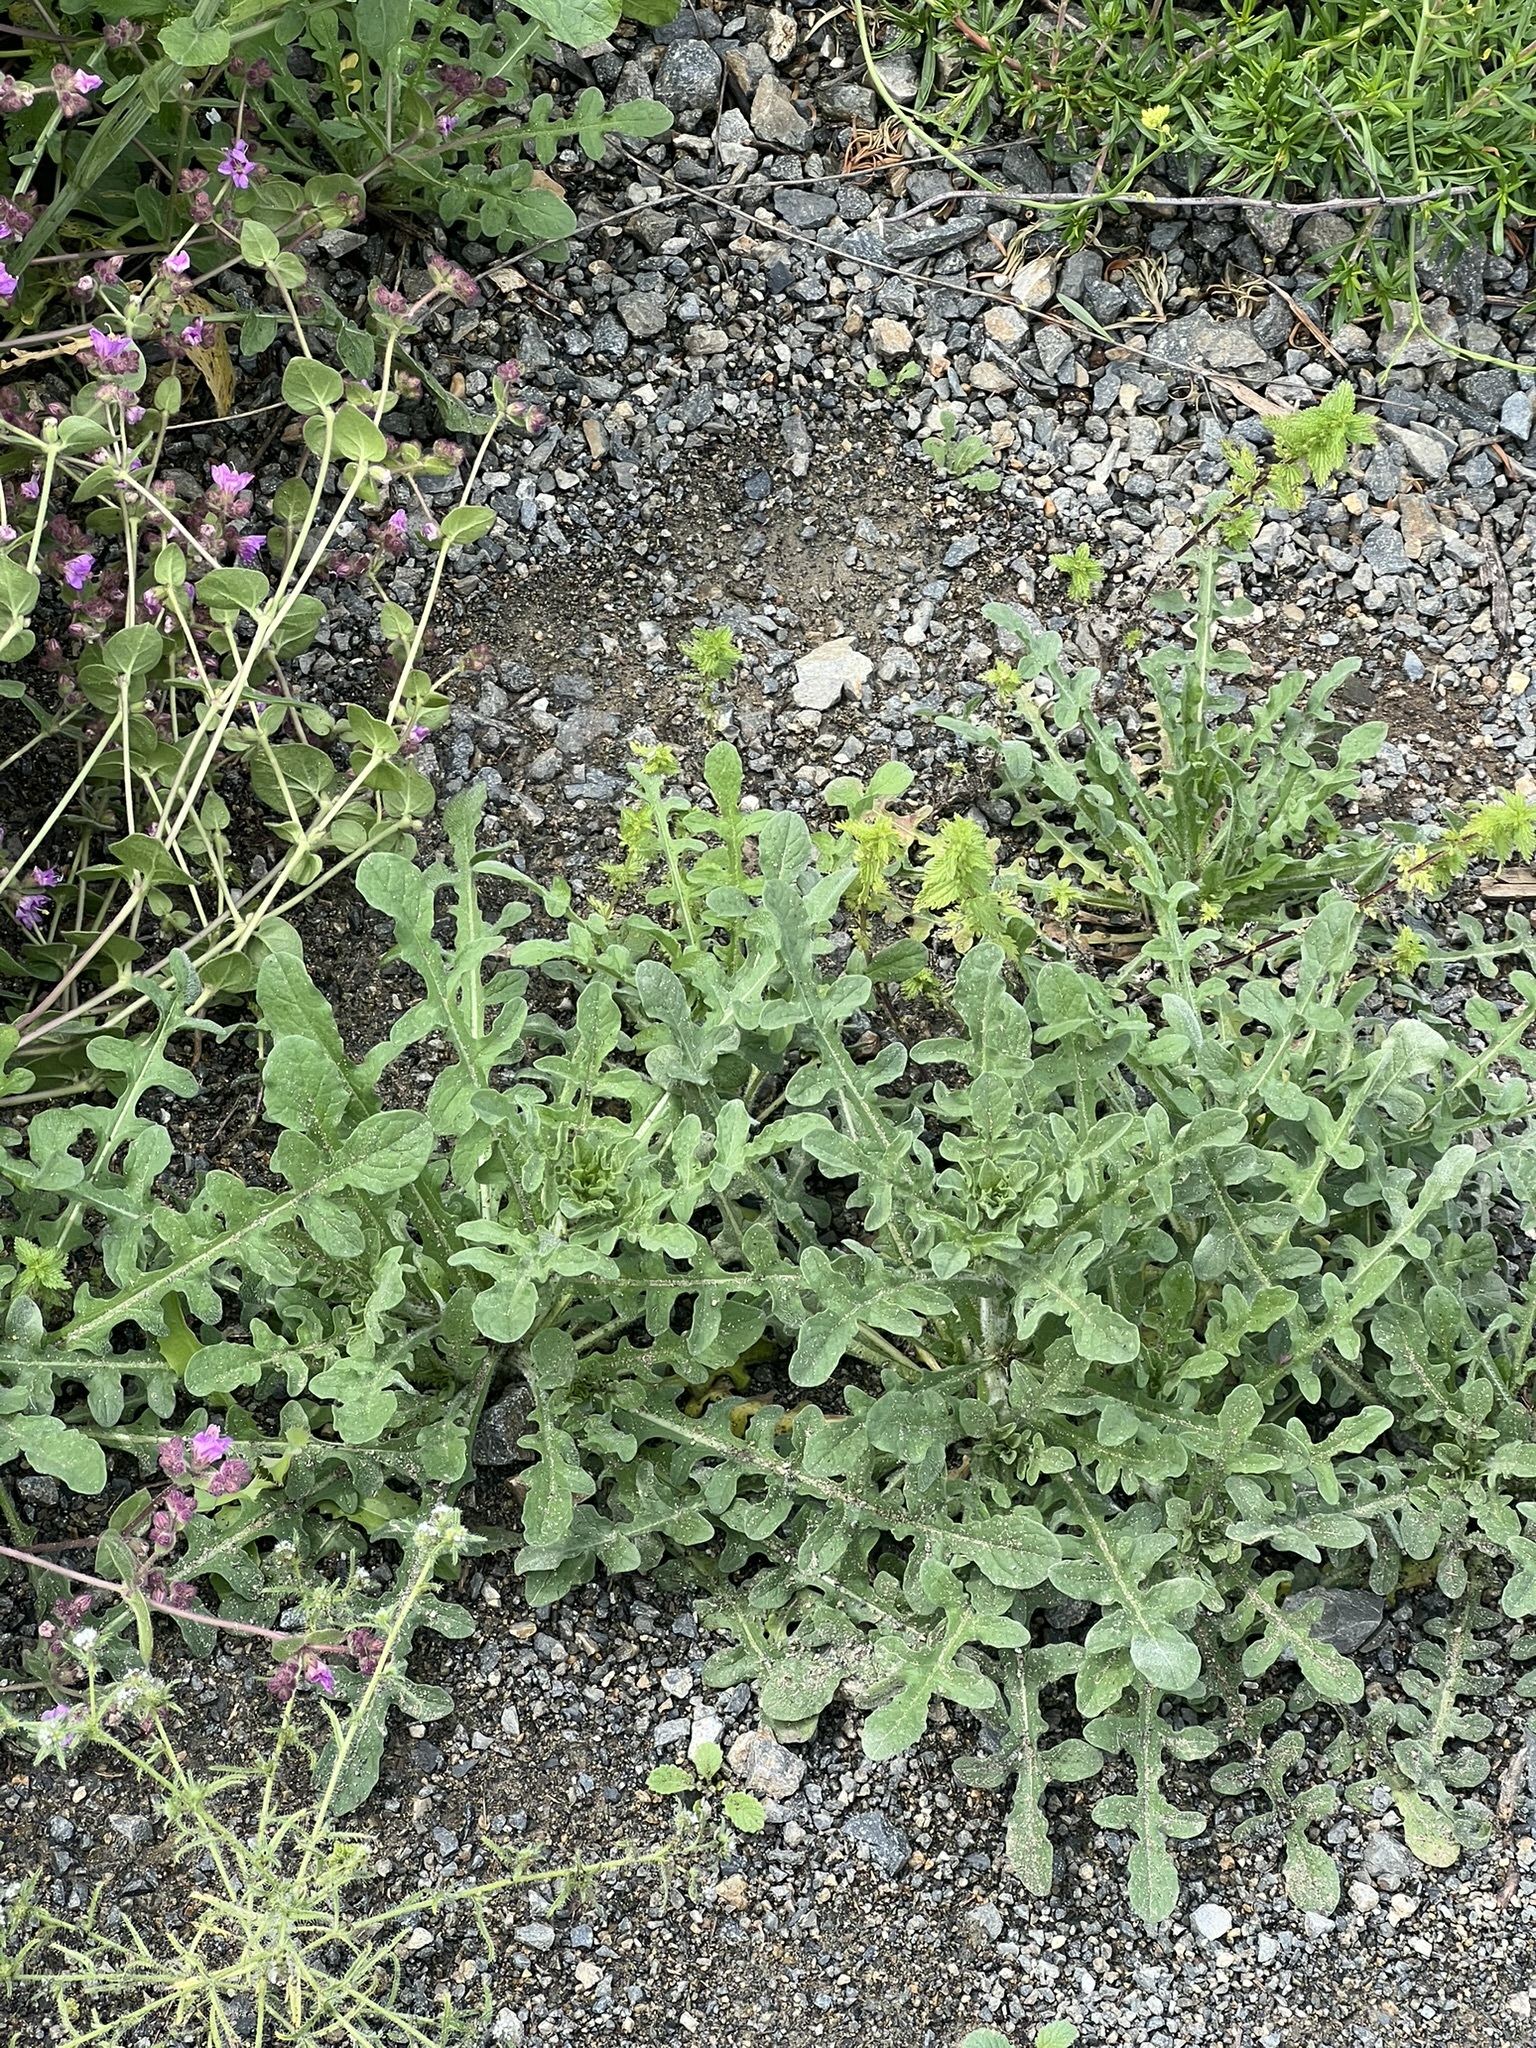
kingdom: Plantae
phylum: Tracheophyta
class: Magnoliopsida
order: Asterales
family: Asteraceae
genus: Centaurea
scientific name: Centaurea melitensis
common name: Maltese star-thistle
